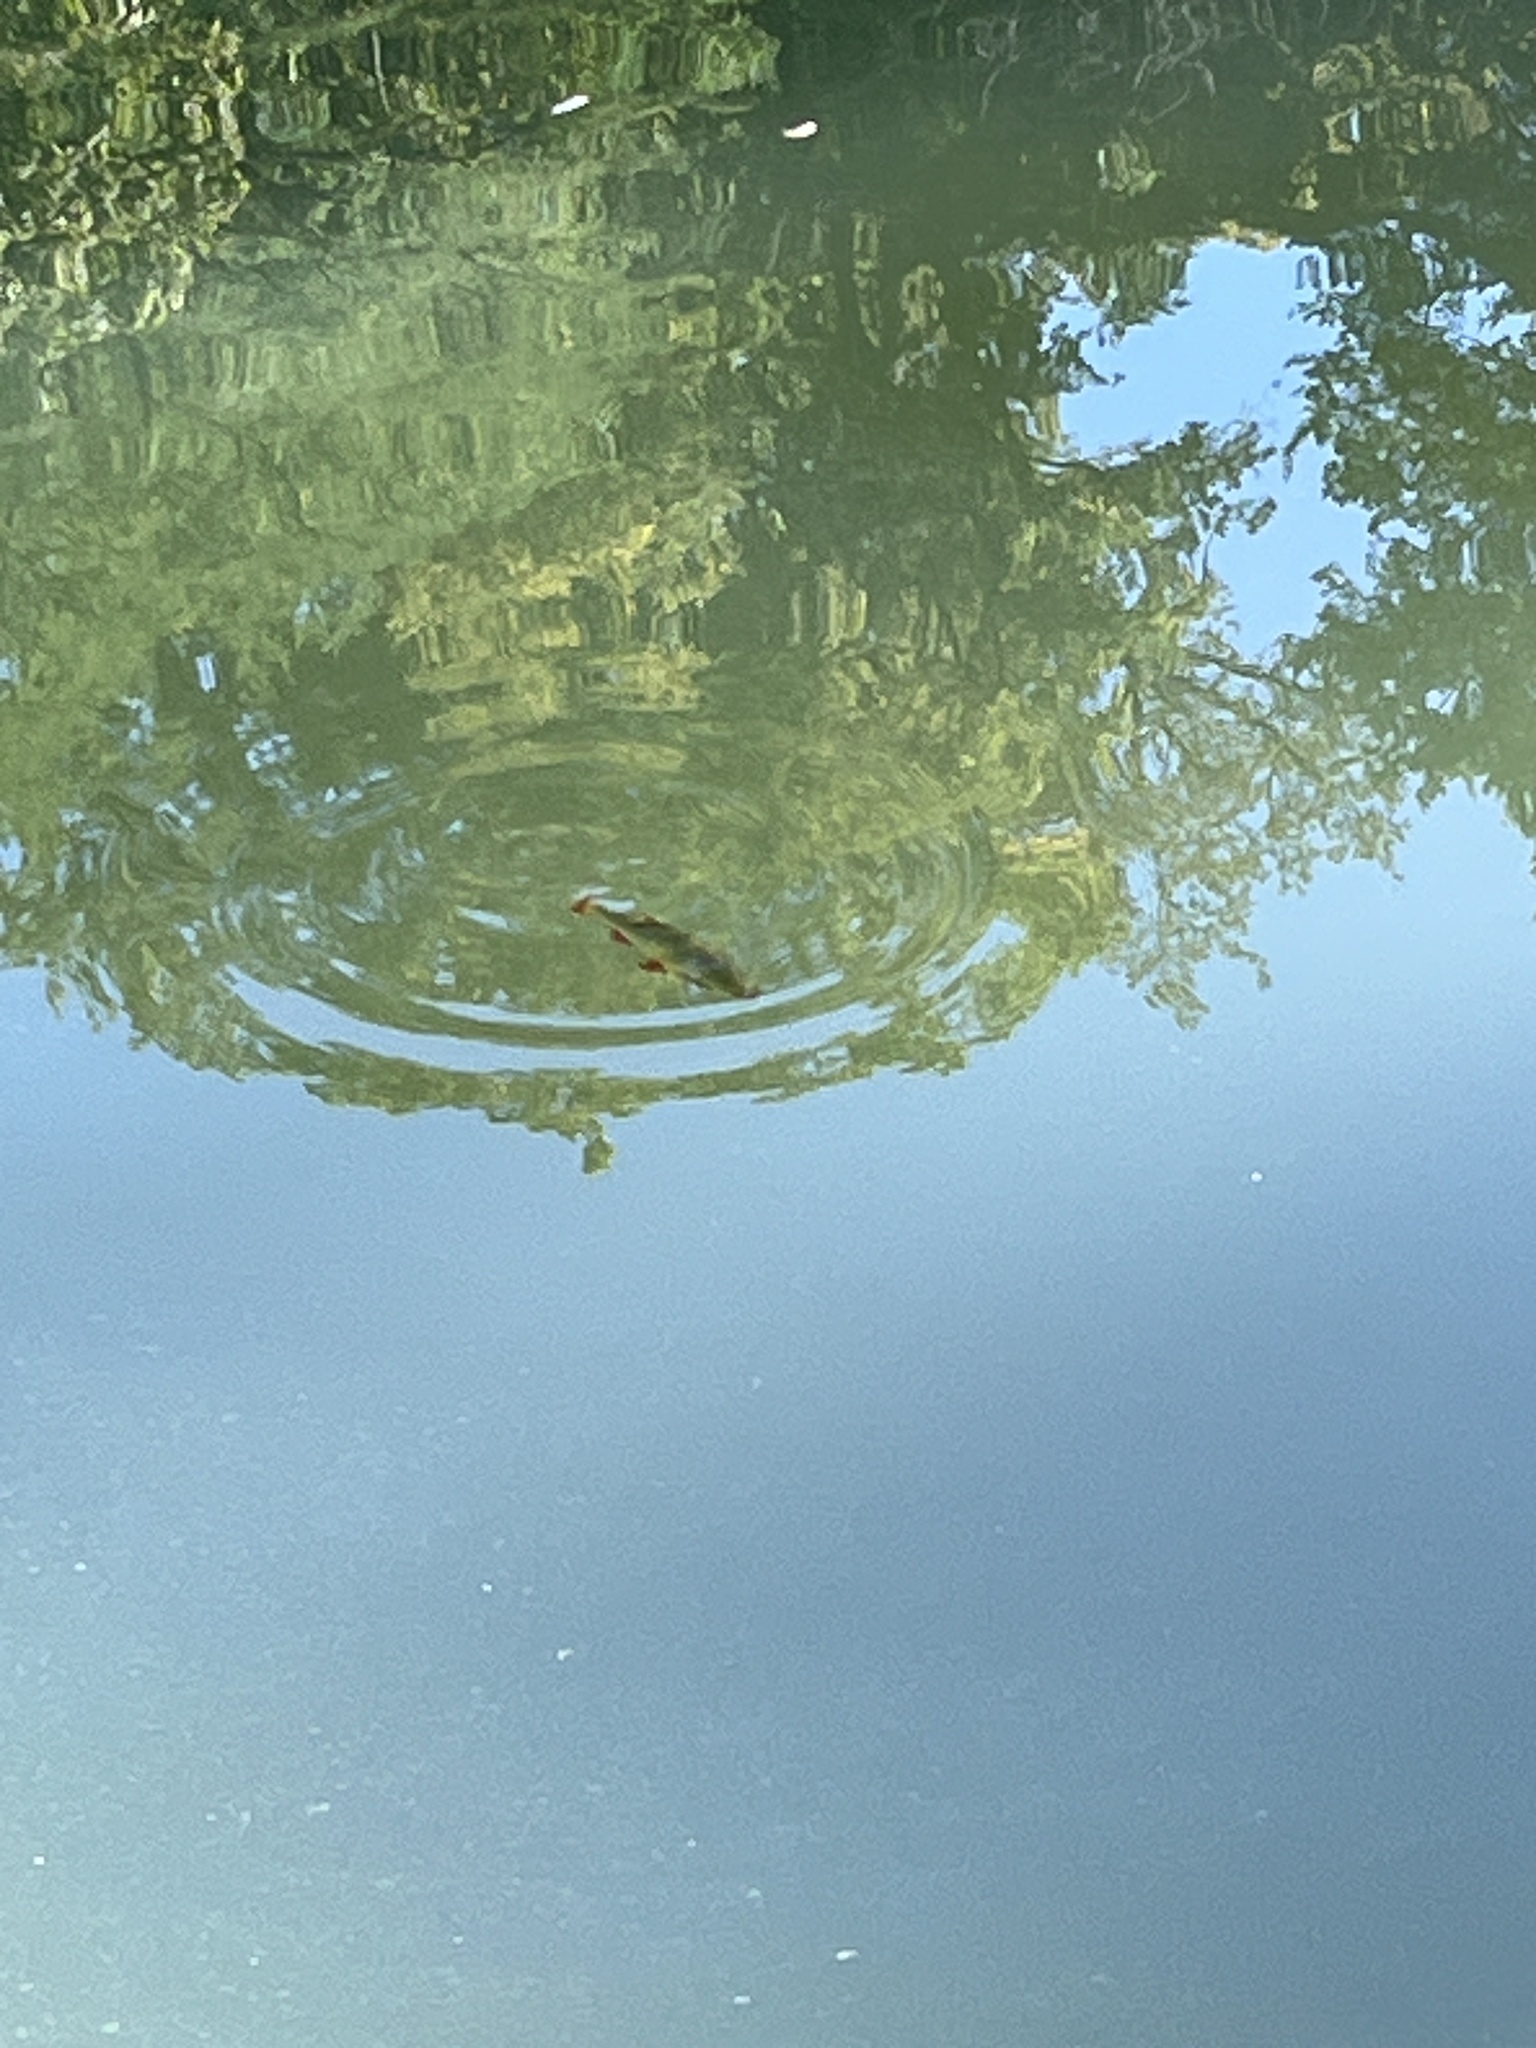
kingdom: Animalia
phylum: Chordata
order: Cypriniformes
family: Cyprinidae
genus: Scardinius
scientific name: Scardinius erythrophthalmus
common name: Rudd
